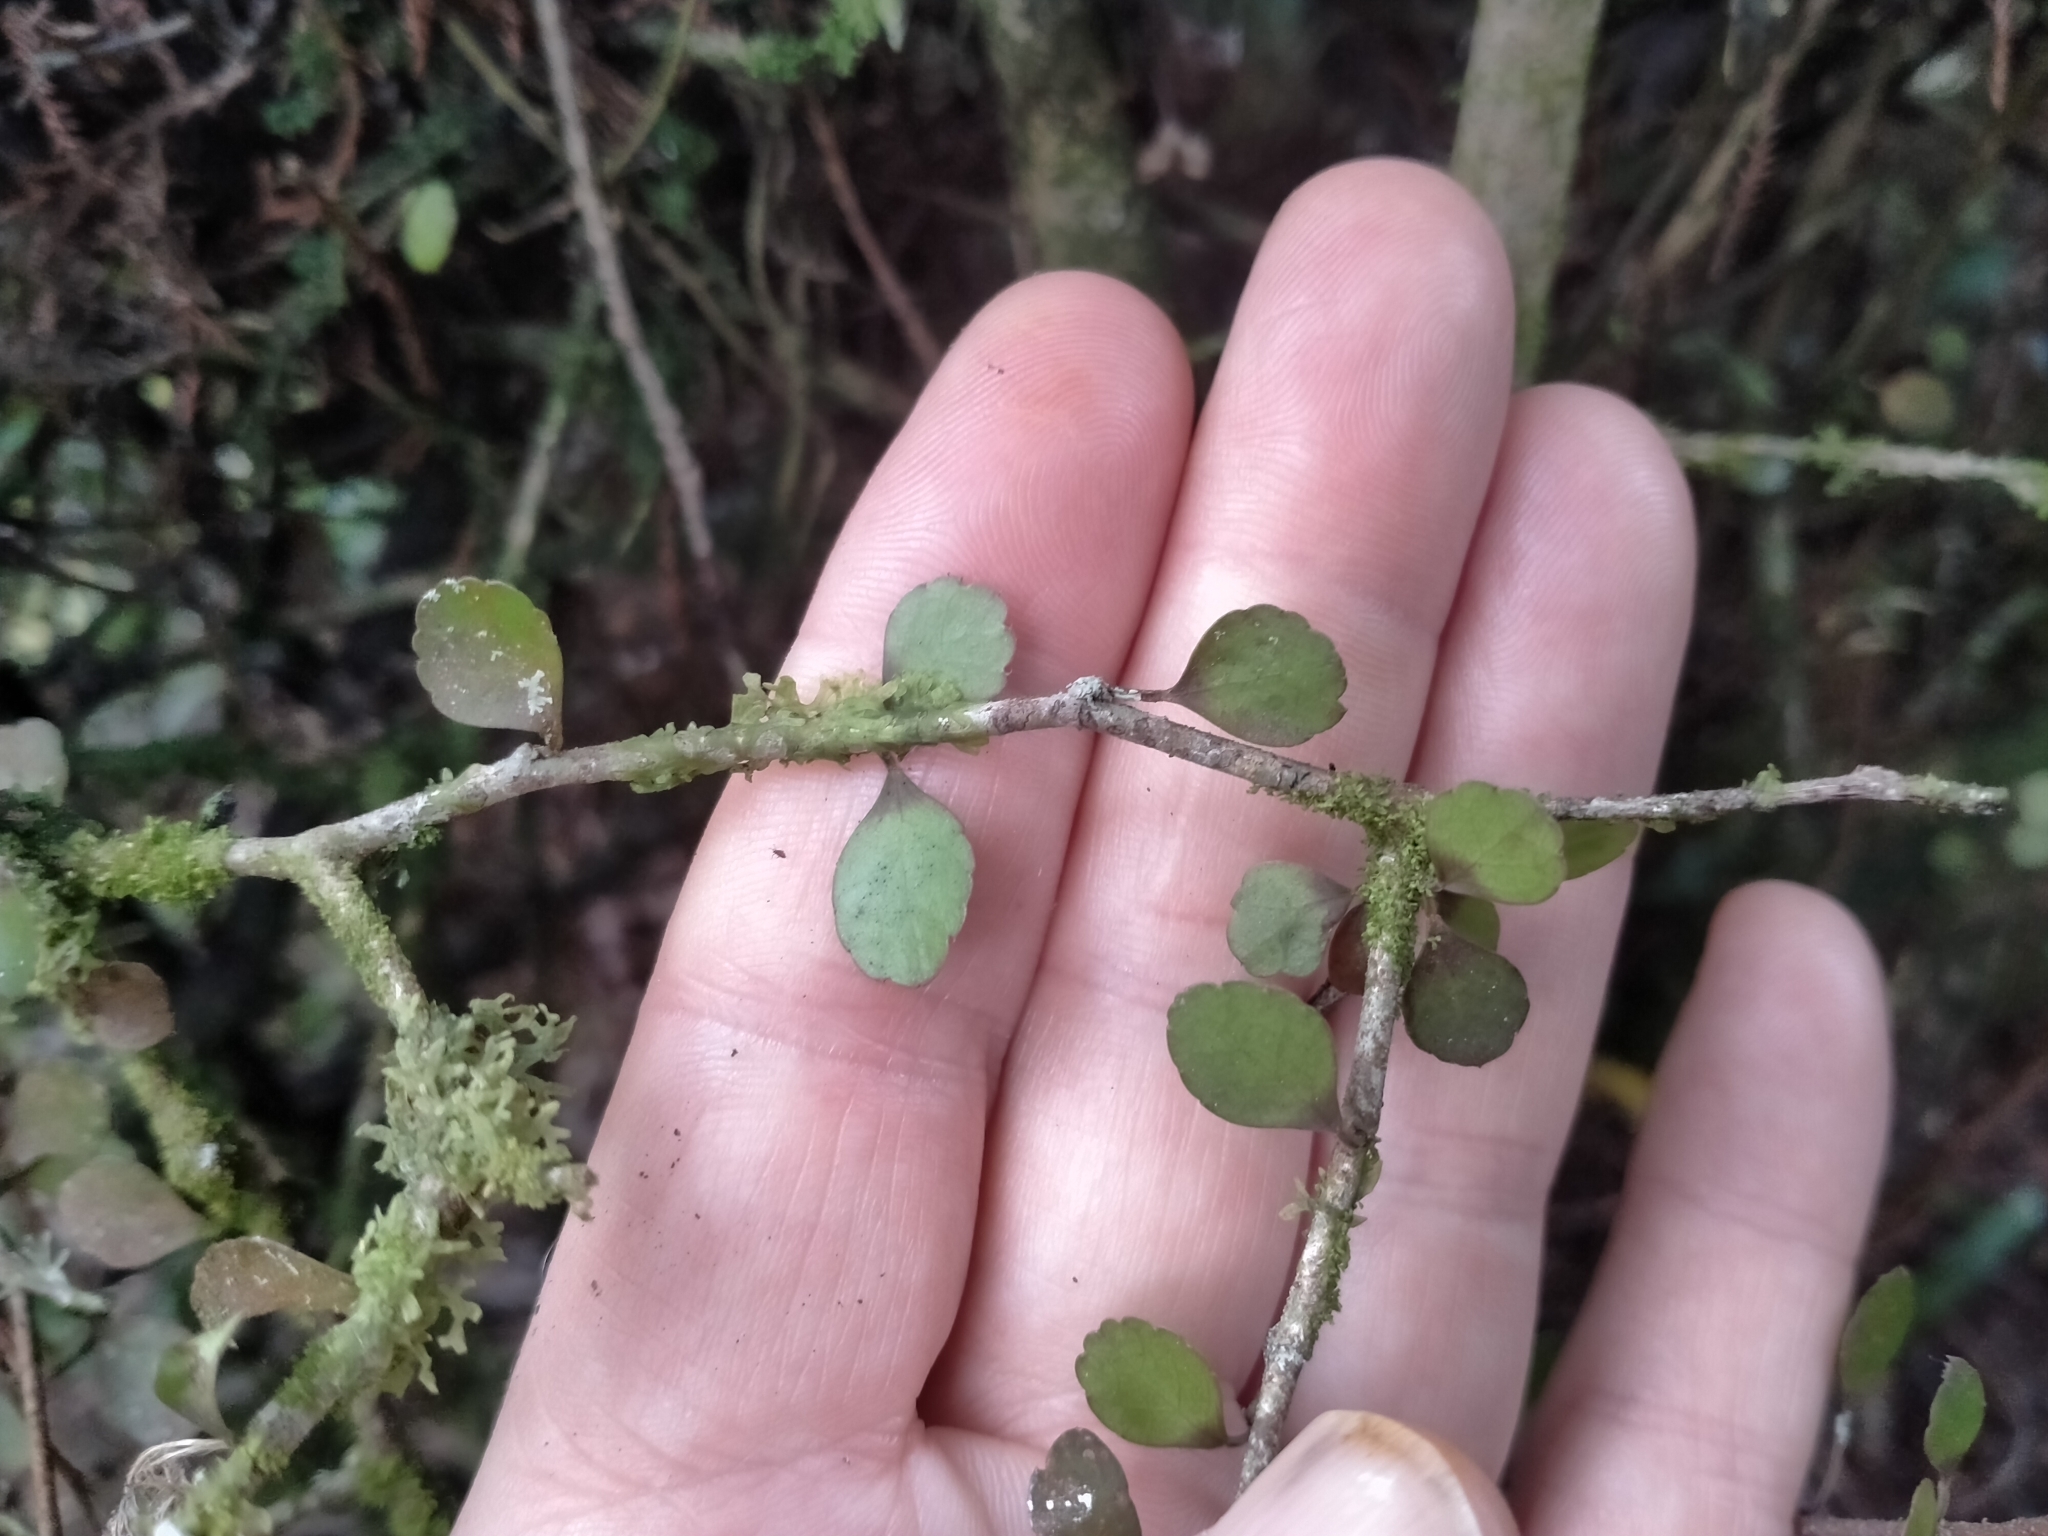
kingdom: Plantae
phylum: Tracheophyta
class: Magnoliopsida
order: Apiales
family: Araliaceae
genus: Raukaua
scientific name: Raukaua anomalus
